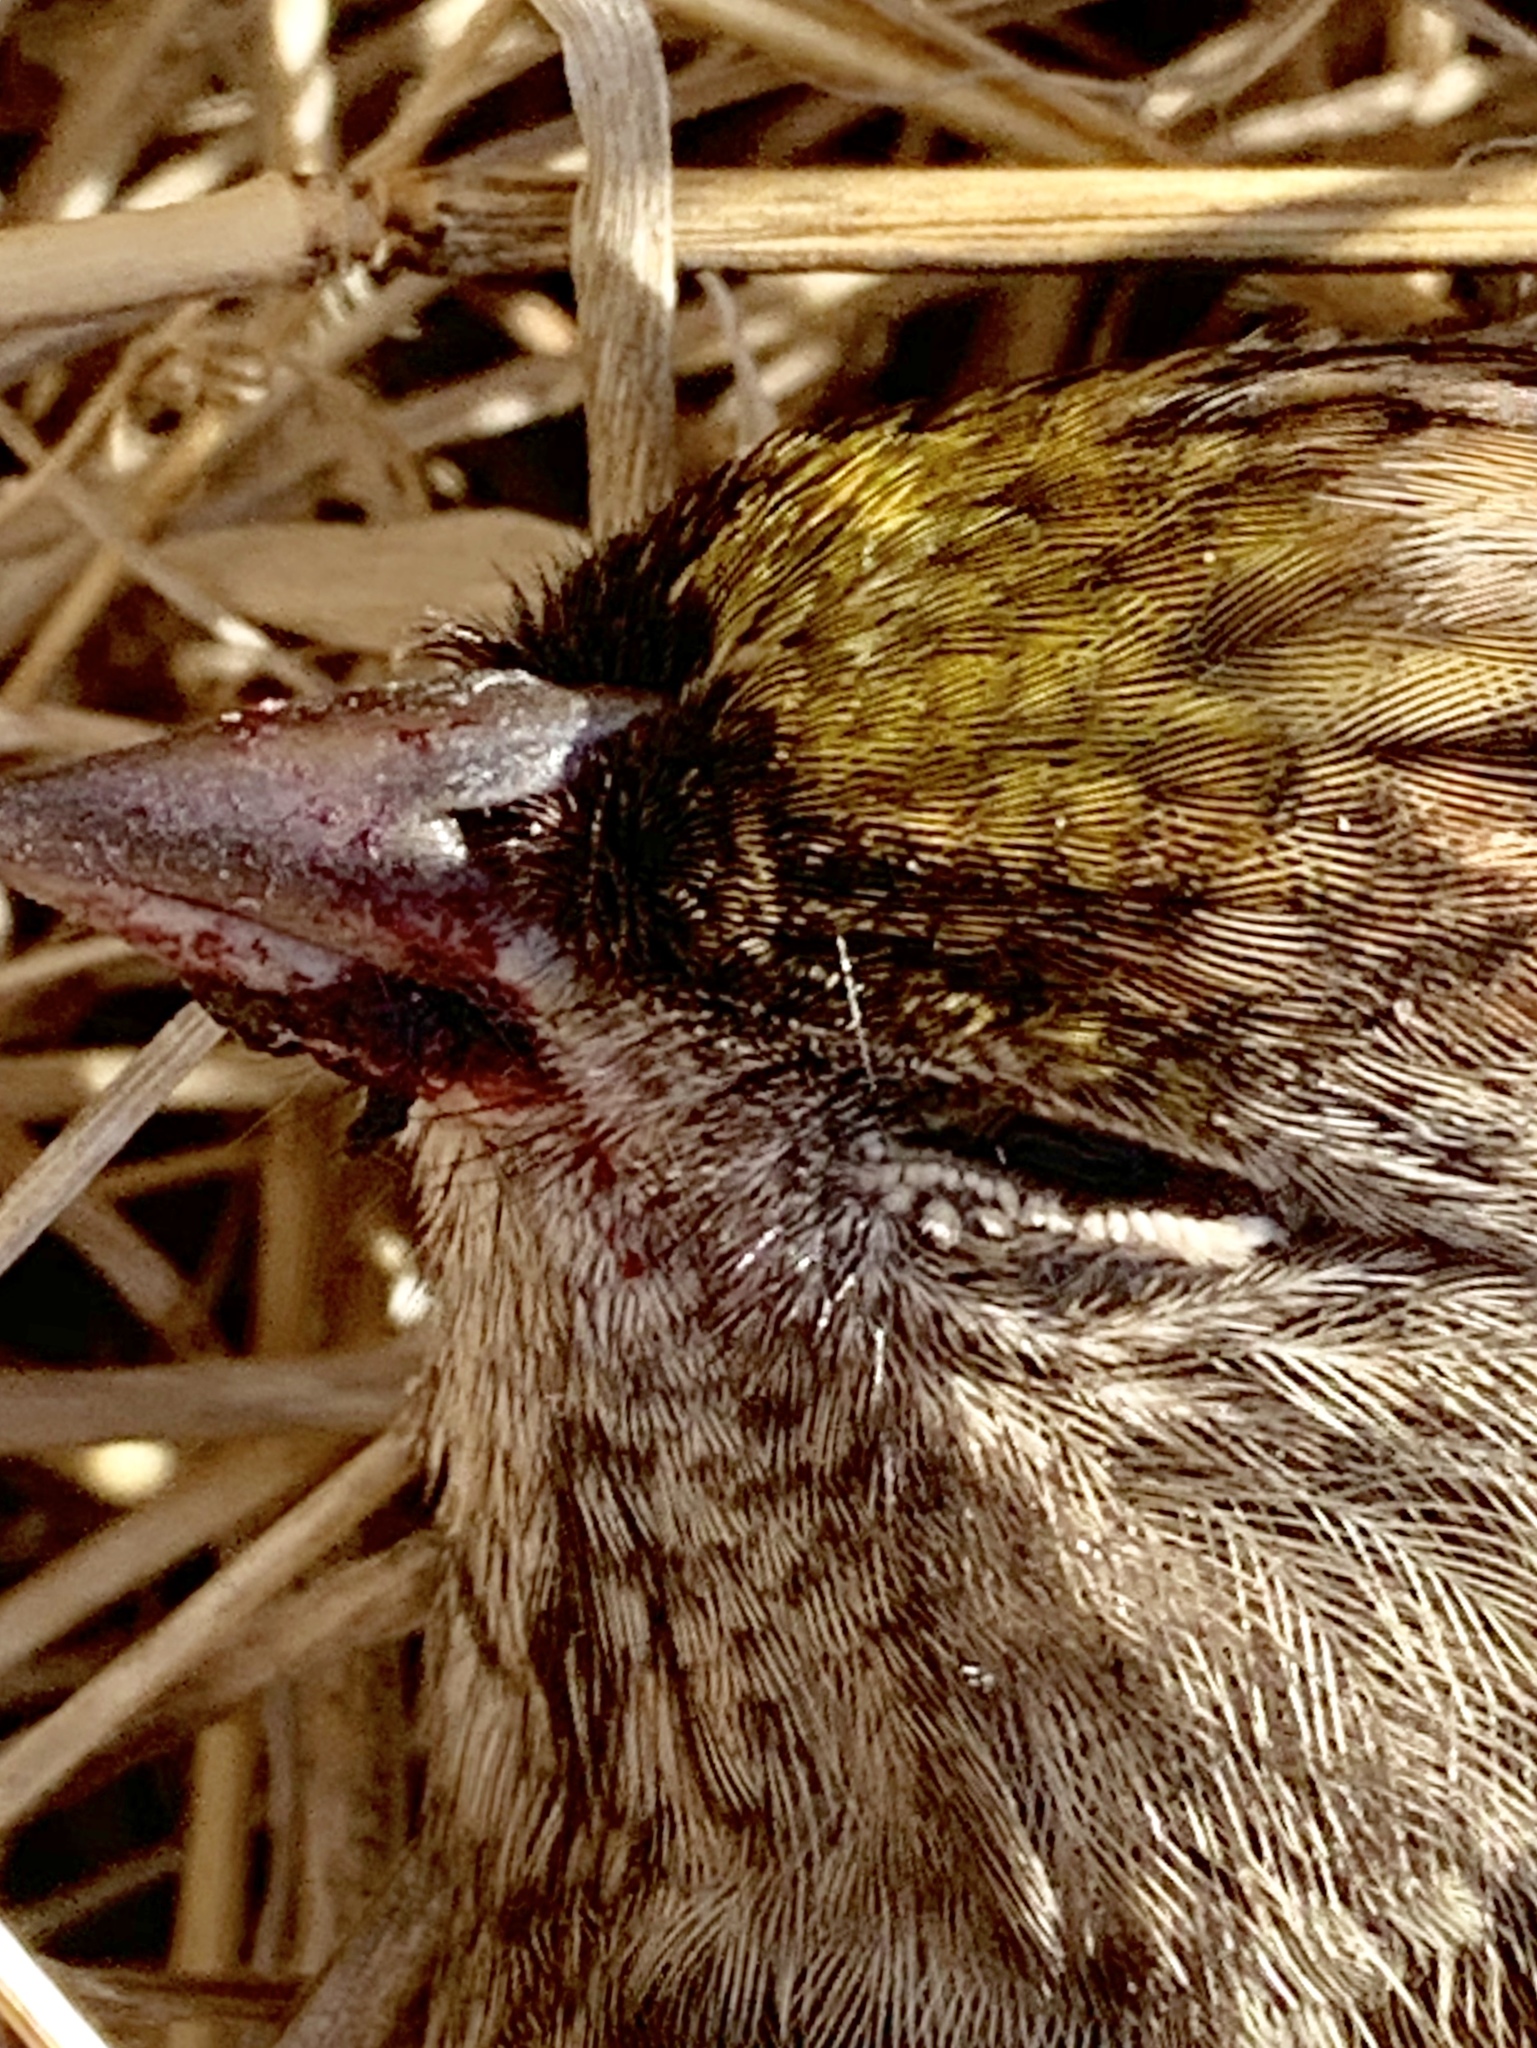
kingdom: Animalia
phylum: Chordata
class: Aves
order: Passeriformes
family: Passerellidae
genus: Zonotrichia
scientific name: Zonotrichia atricapilla
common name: Golden-crowned sparrow
